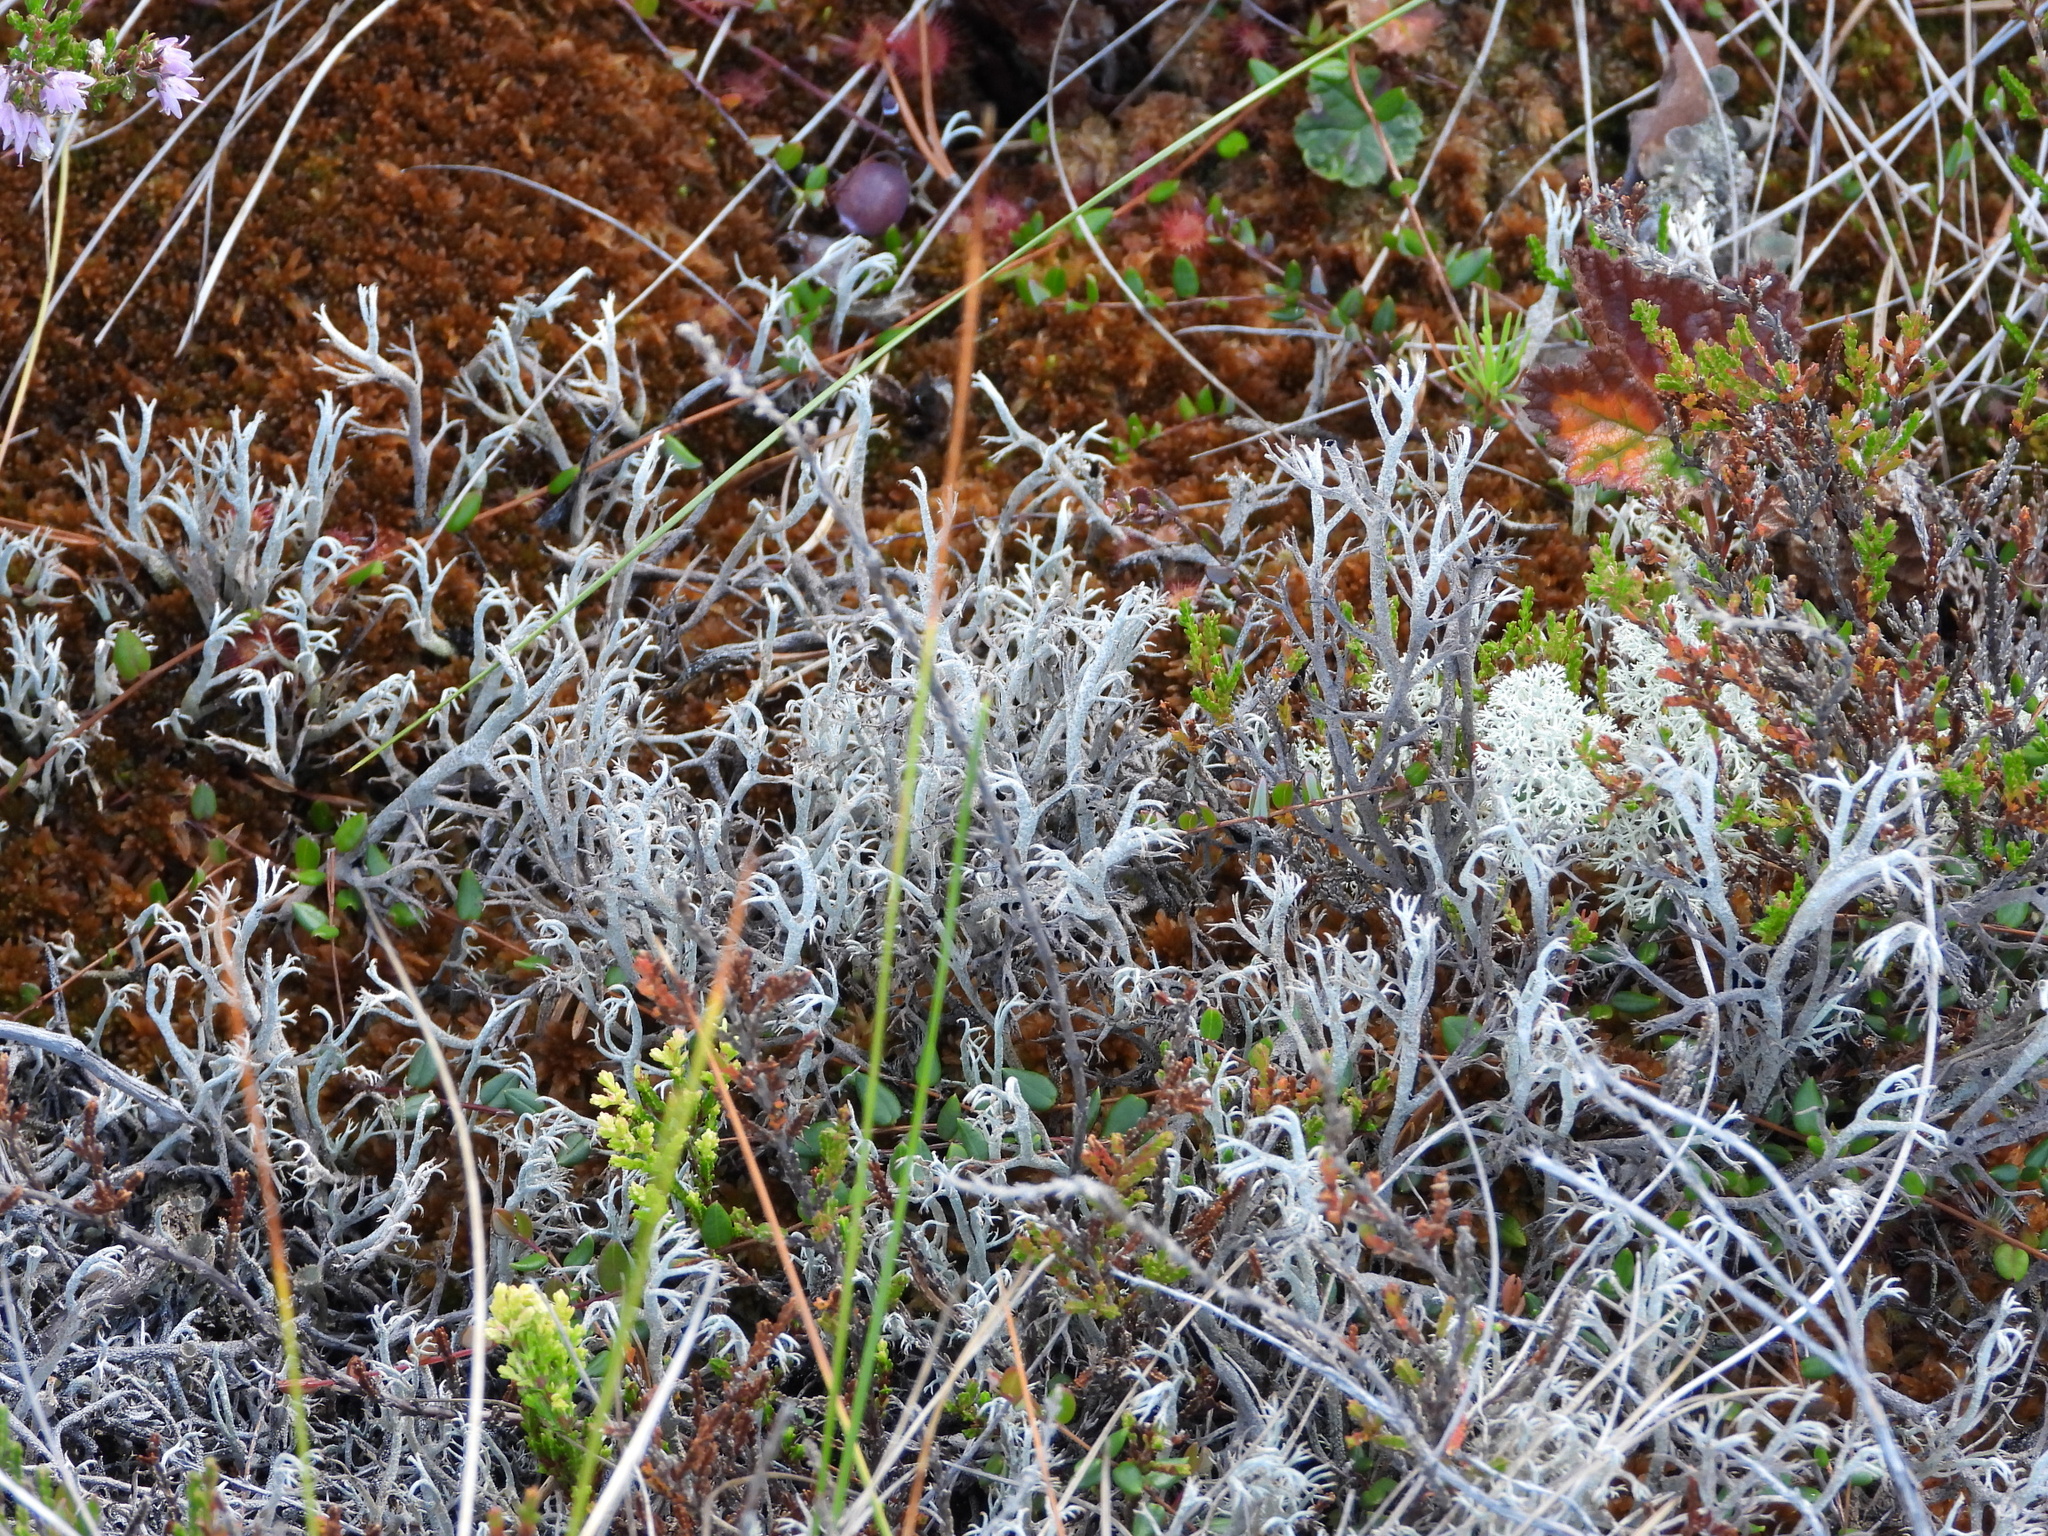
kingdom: Fungi
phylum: Ascomycota
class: Lecanoromycetes
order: Lecanorales
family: Cladoniaceae
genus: Cladonia
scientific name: Cladonia stygia
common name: Black-footed reindeer lichen
